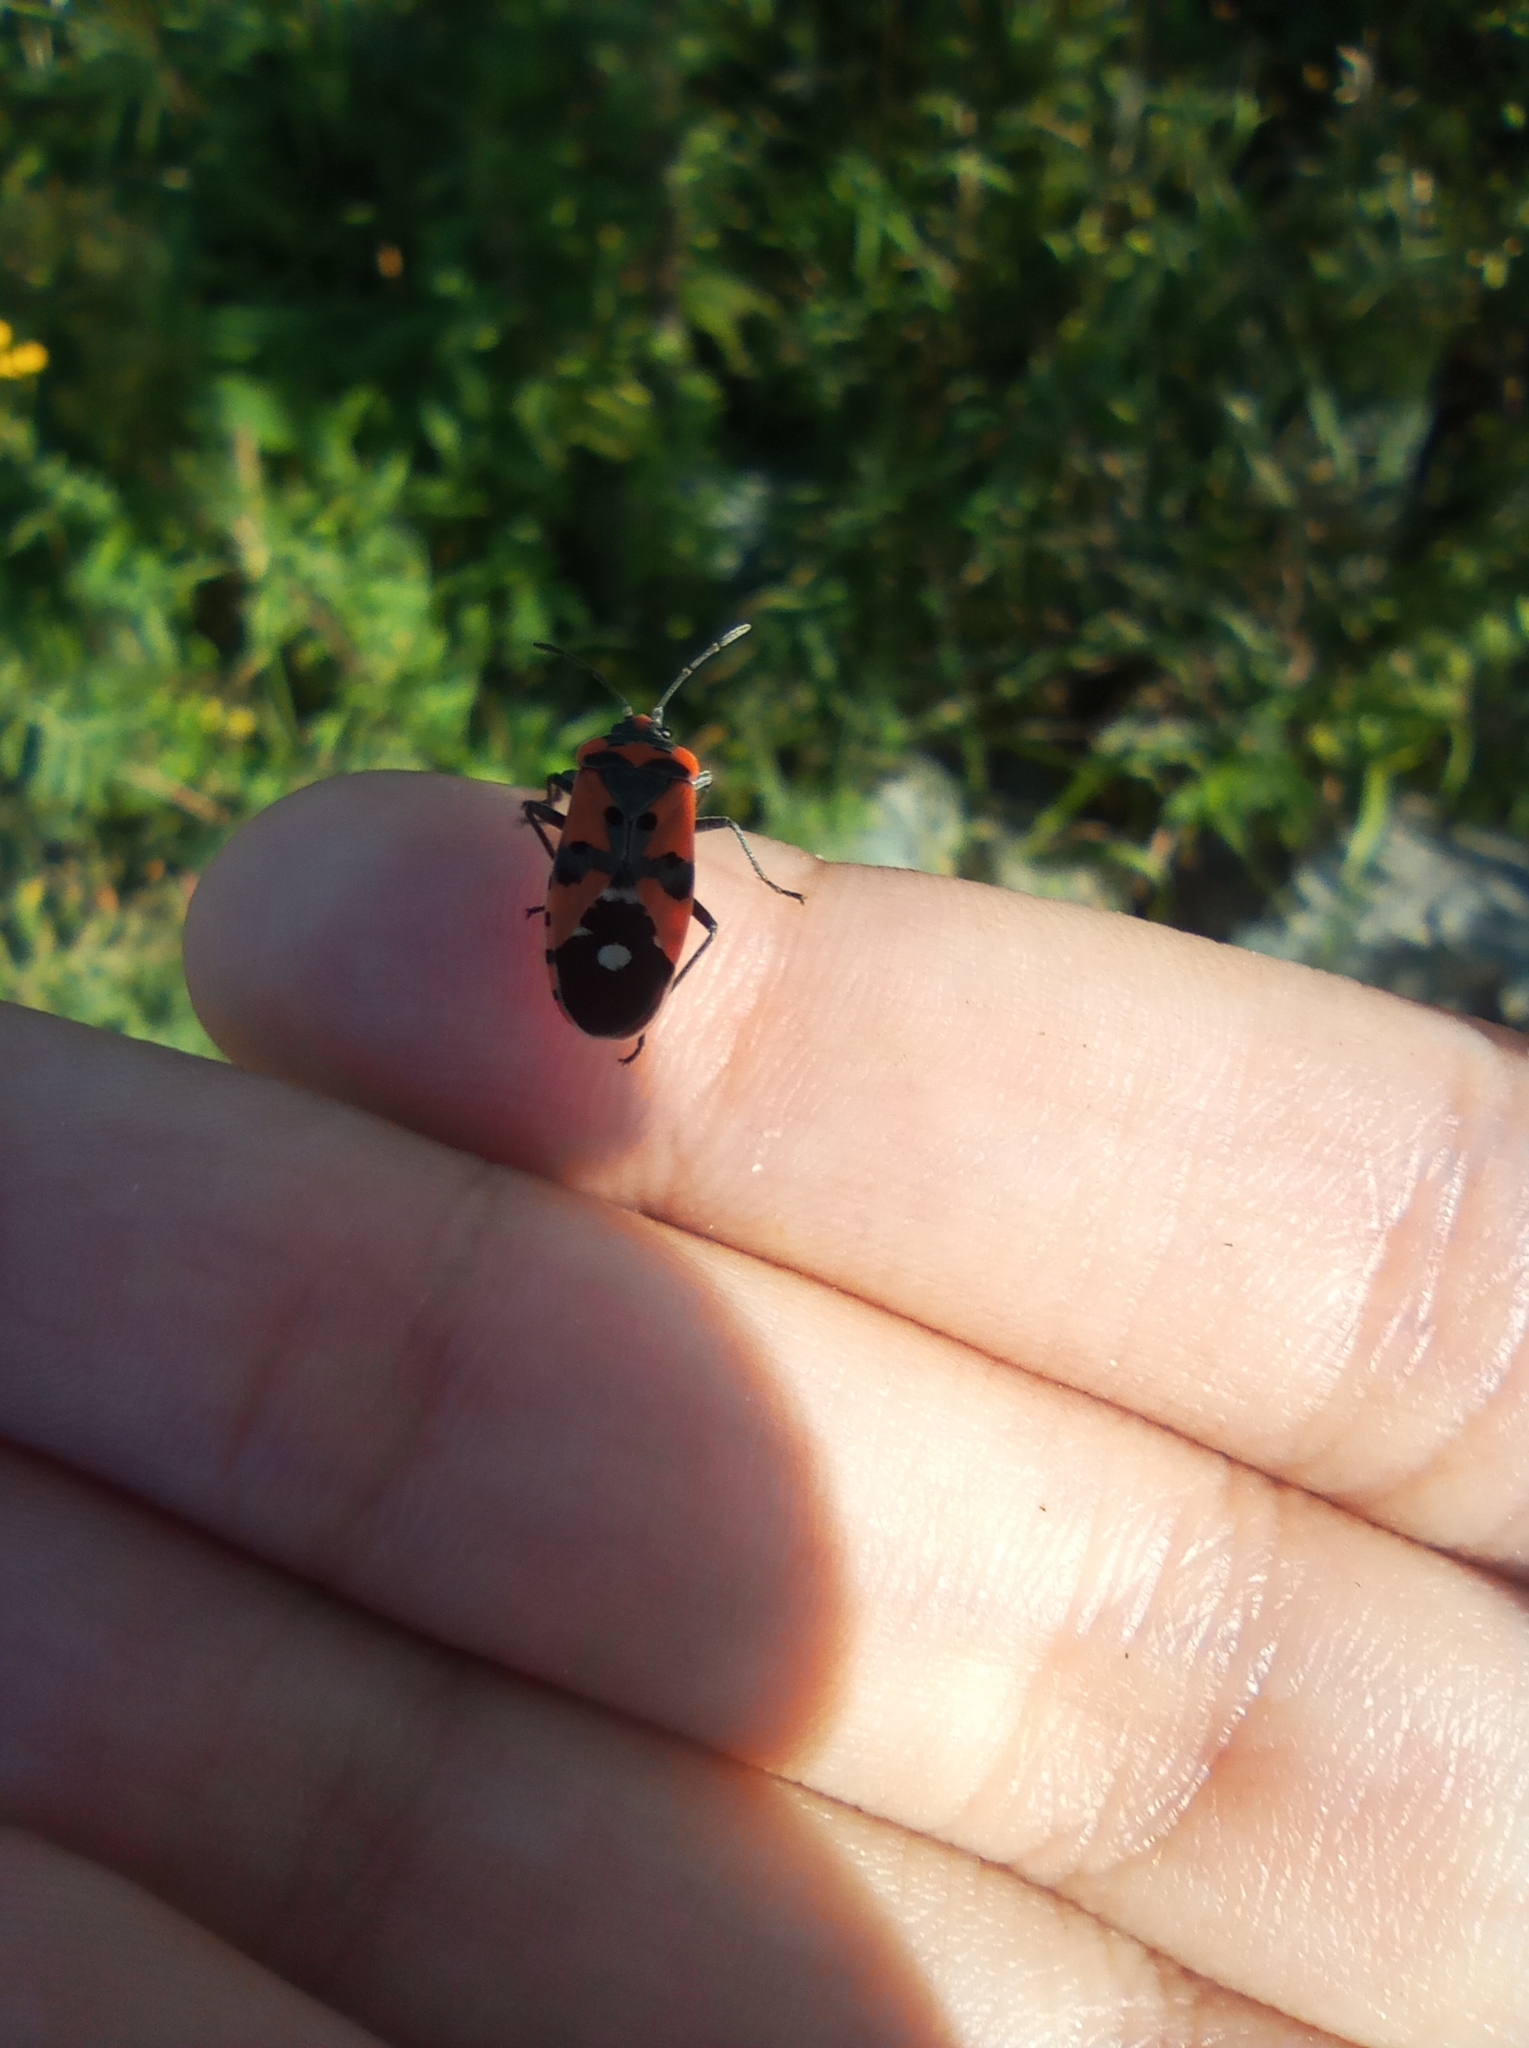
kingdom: Animalia
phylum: Arthropoda
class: Insecta
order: Hemiptera
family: Lygaeidae
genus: Lygaeus
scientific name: Lygaeus equestris
